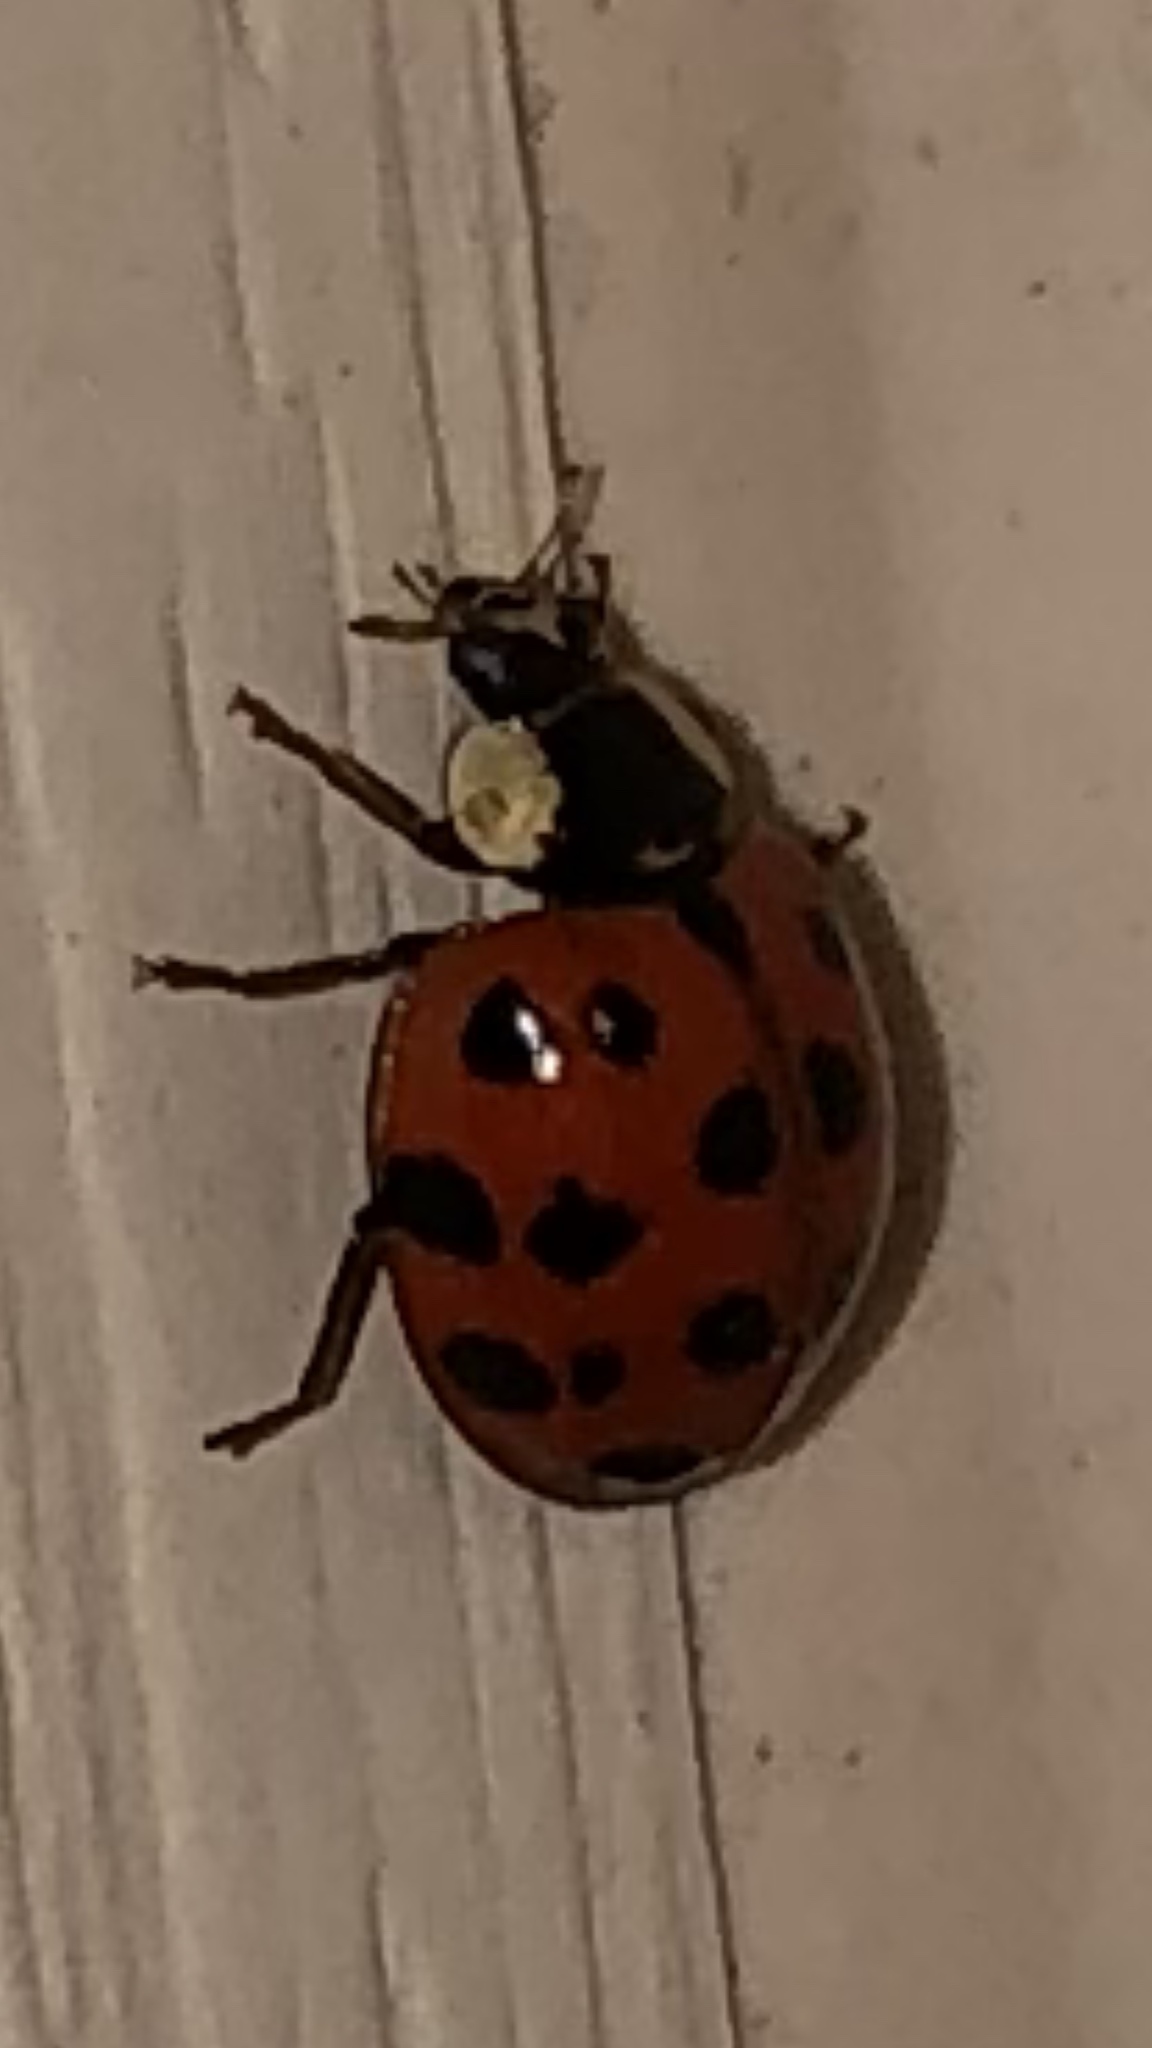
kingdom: Animalia
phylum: Arthropoda
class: Insecta
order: Coleoptera
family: Coccinellidae
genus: Harmonia
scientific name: Harmonia axyridis
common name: Harlequin ladybird
